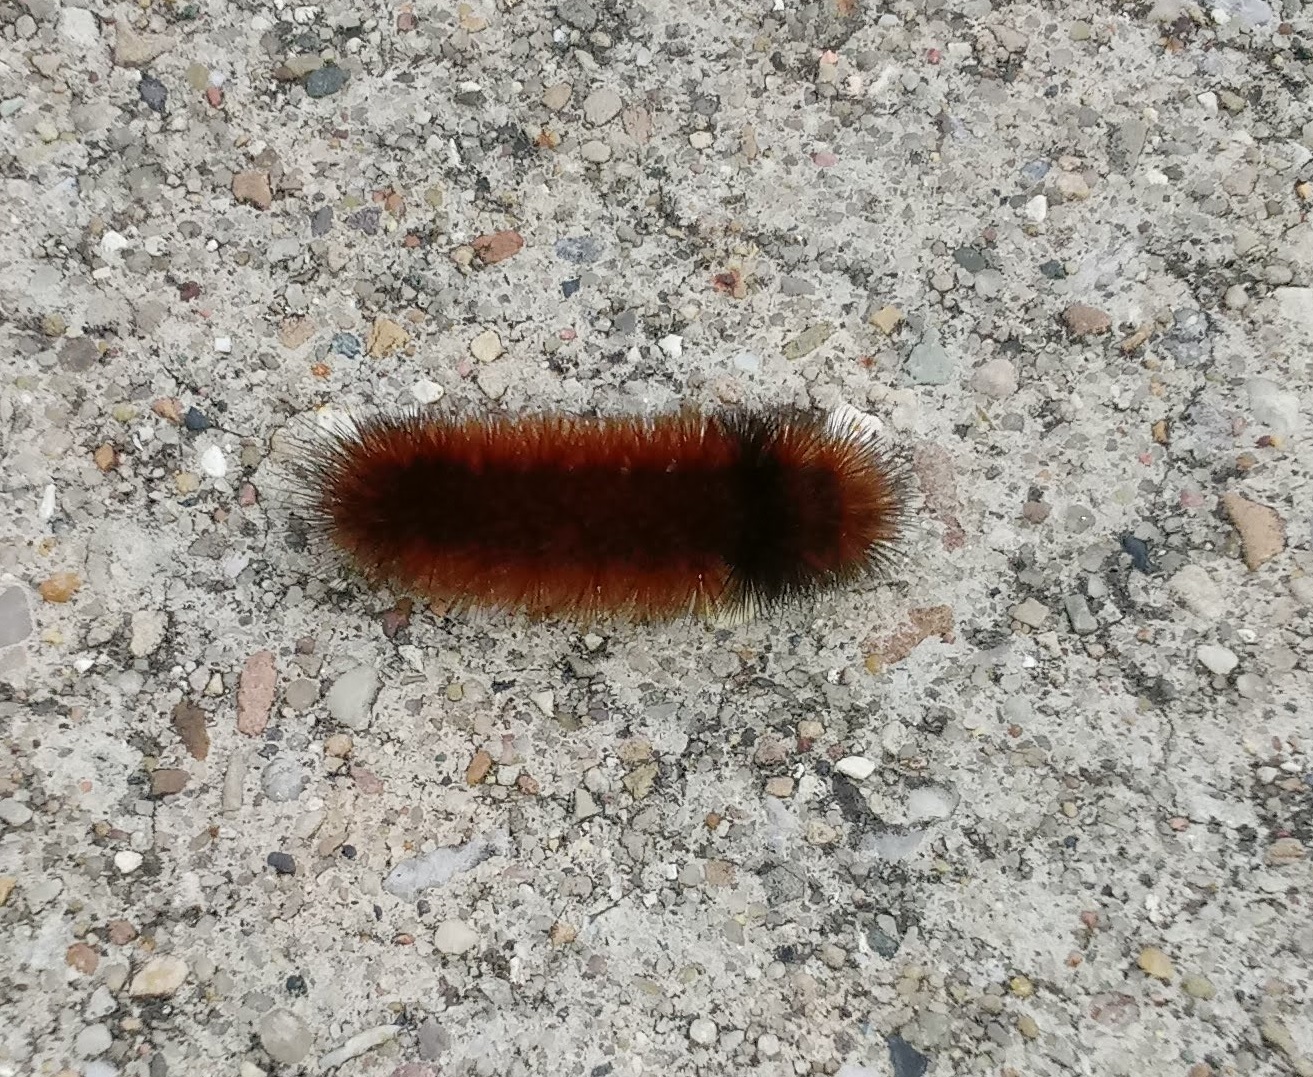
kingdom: Animalia
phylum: Arthropoda
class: Insecta
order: Lepidoptera
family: Erebidae
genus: Pyrrharctia
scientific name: Pyrrharctia isabella
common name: Isabella tiger moth
